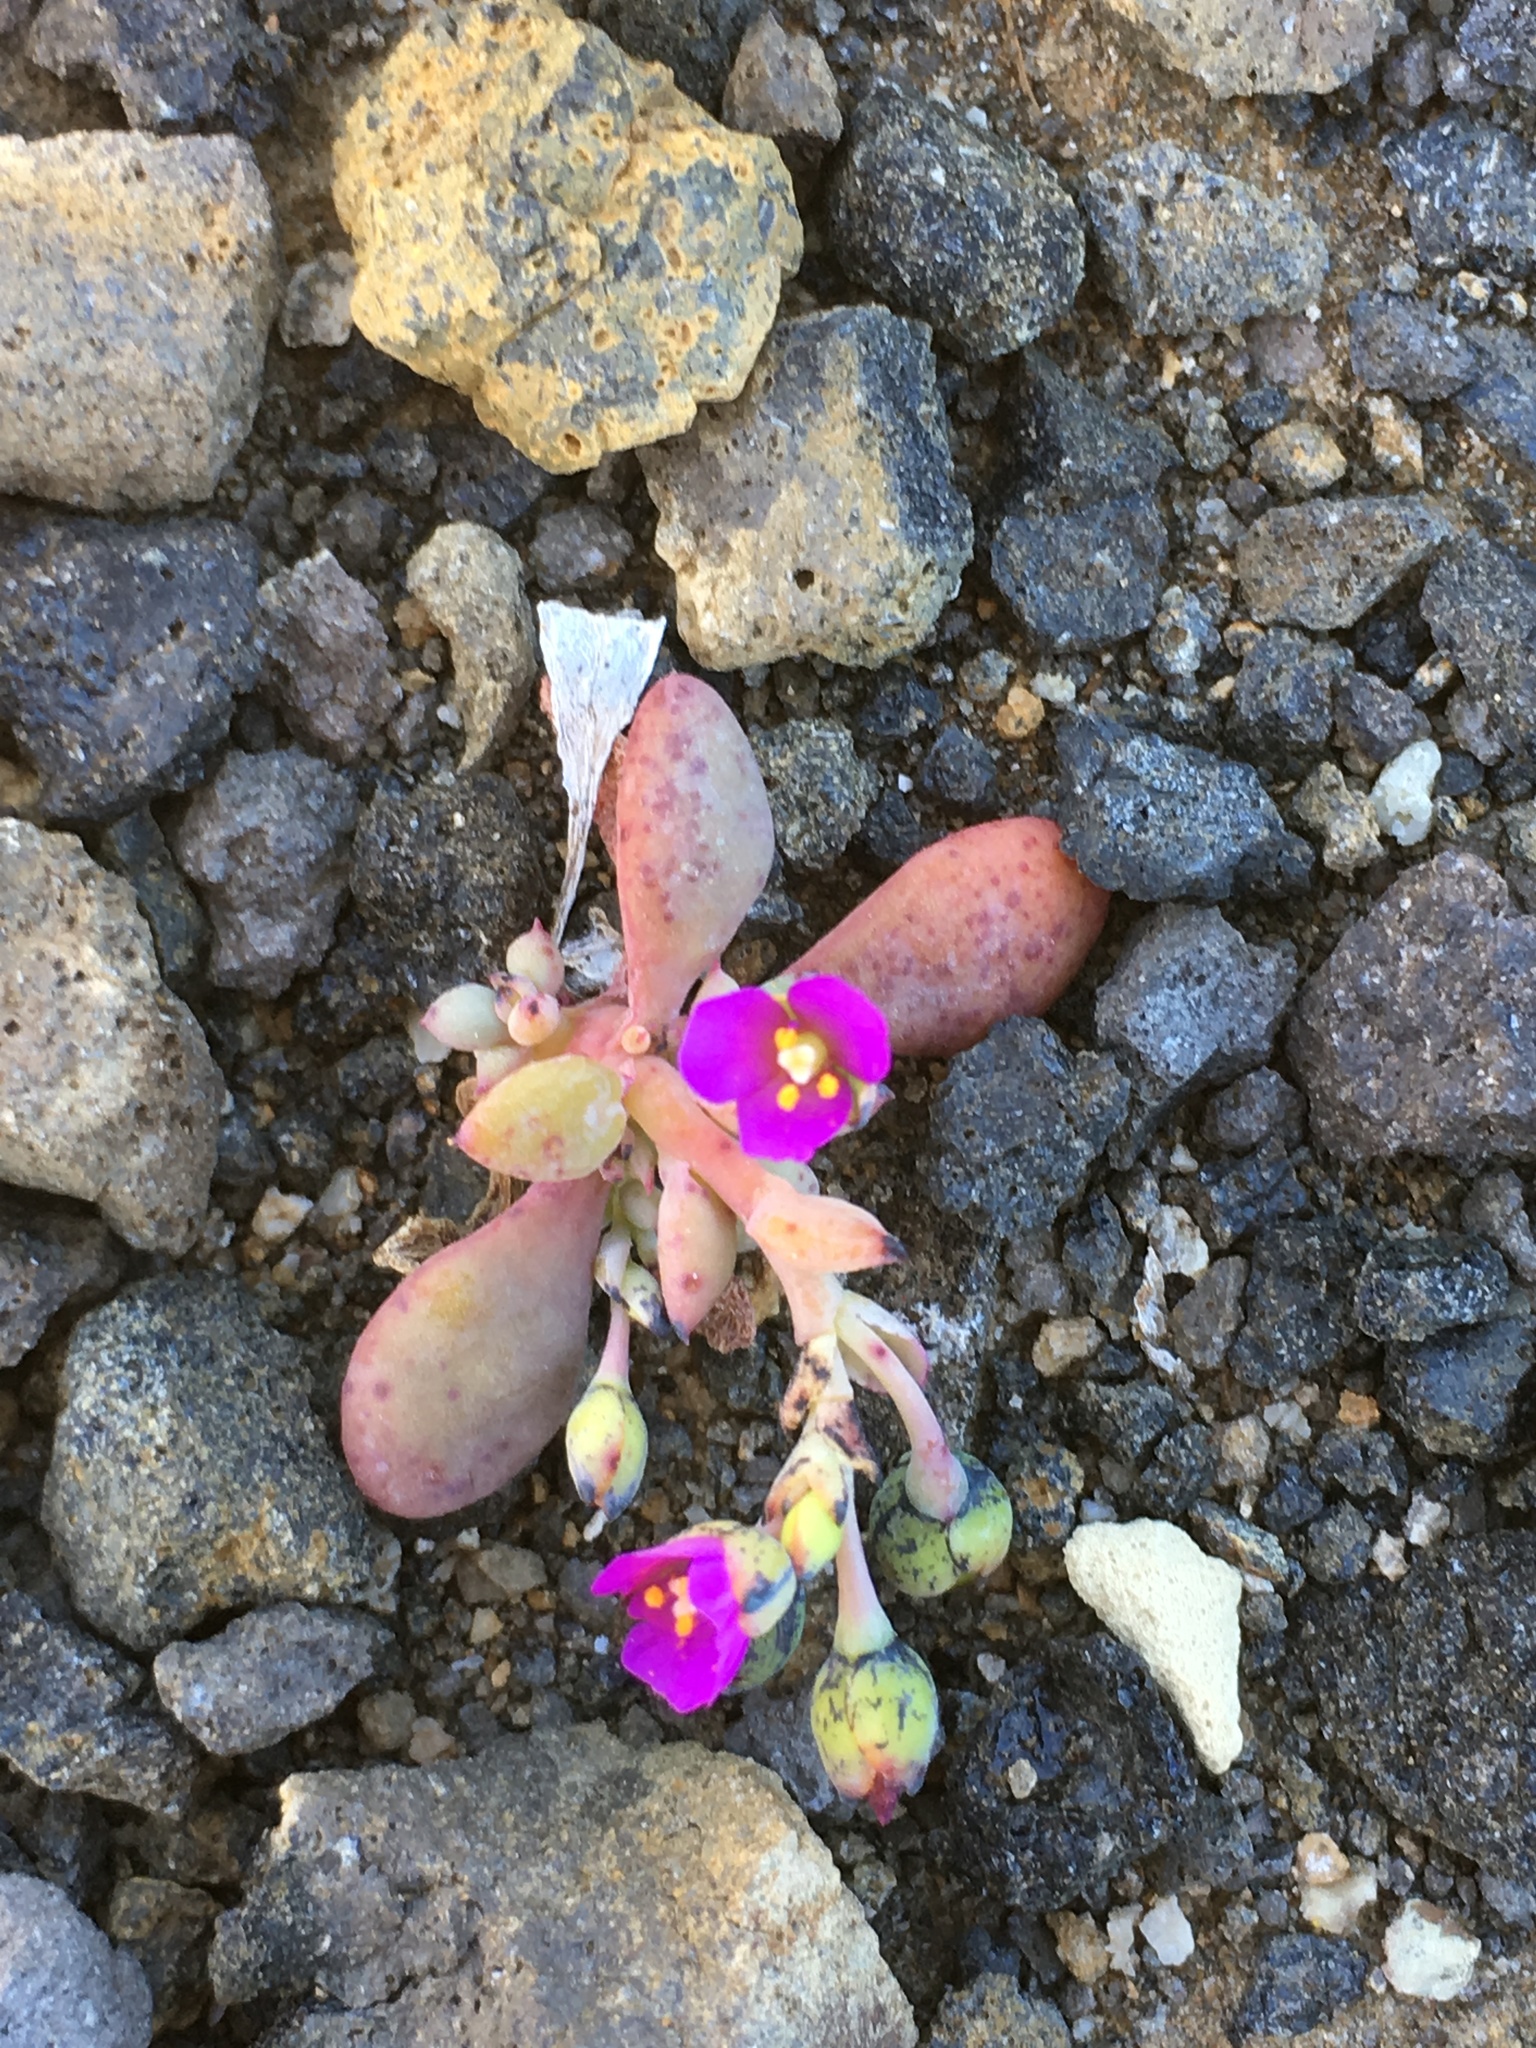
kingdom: Plantae
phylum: Tracheophyta
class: Magnoliopsida
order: Caryophyllales
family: Montiaceae
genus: Cistanthe
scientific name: Cistanthe maritima
